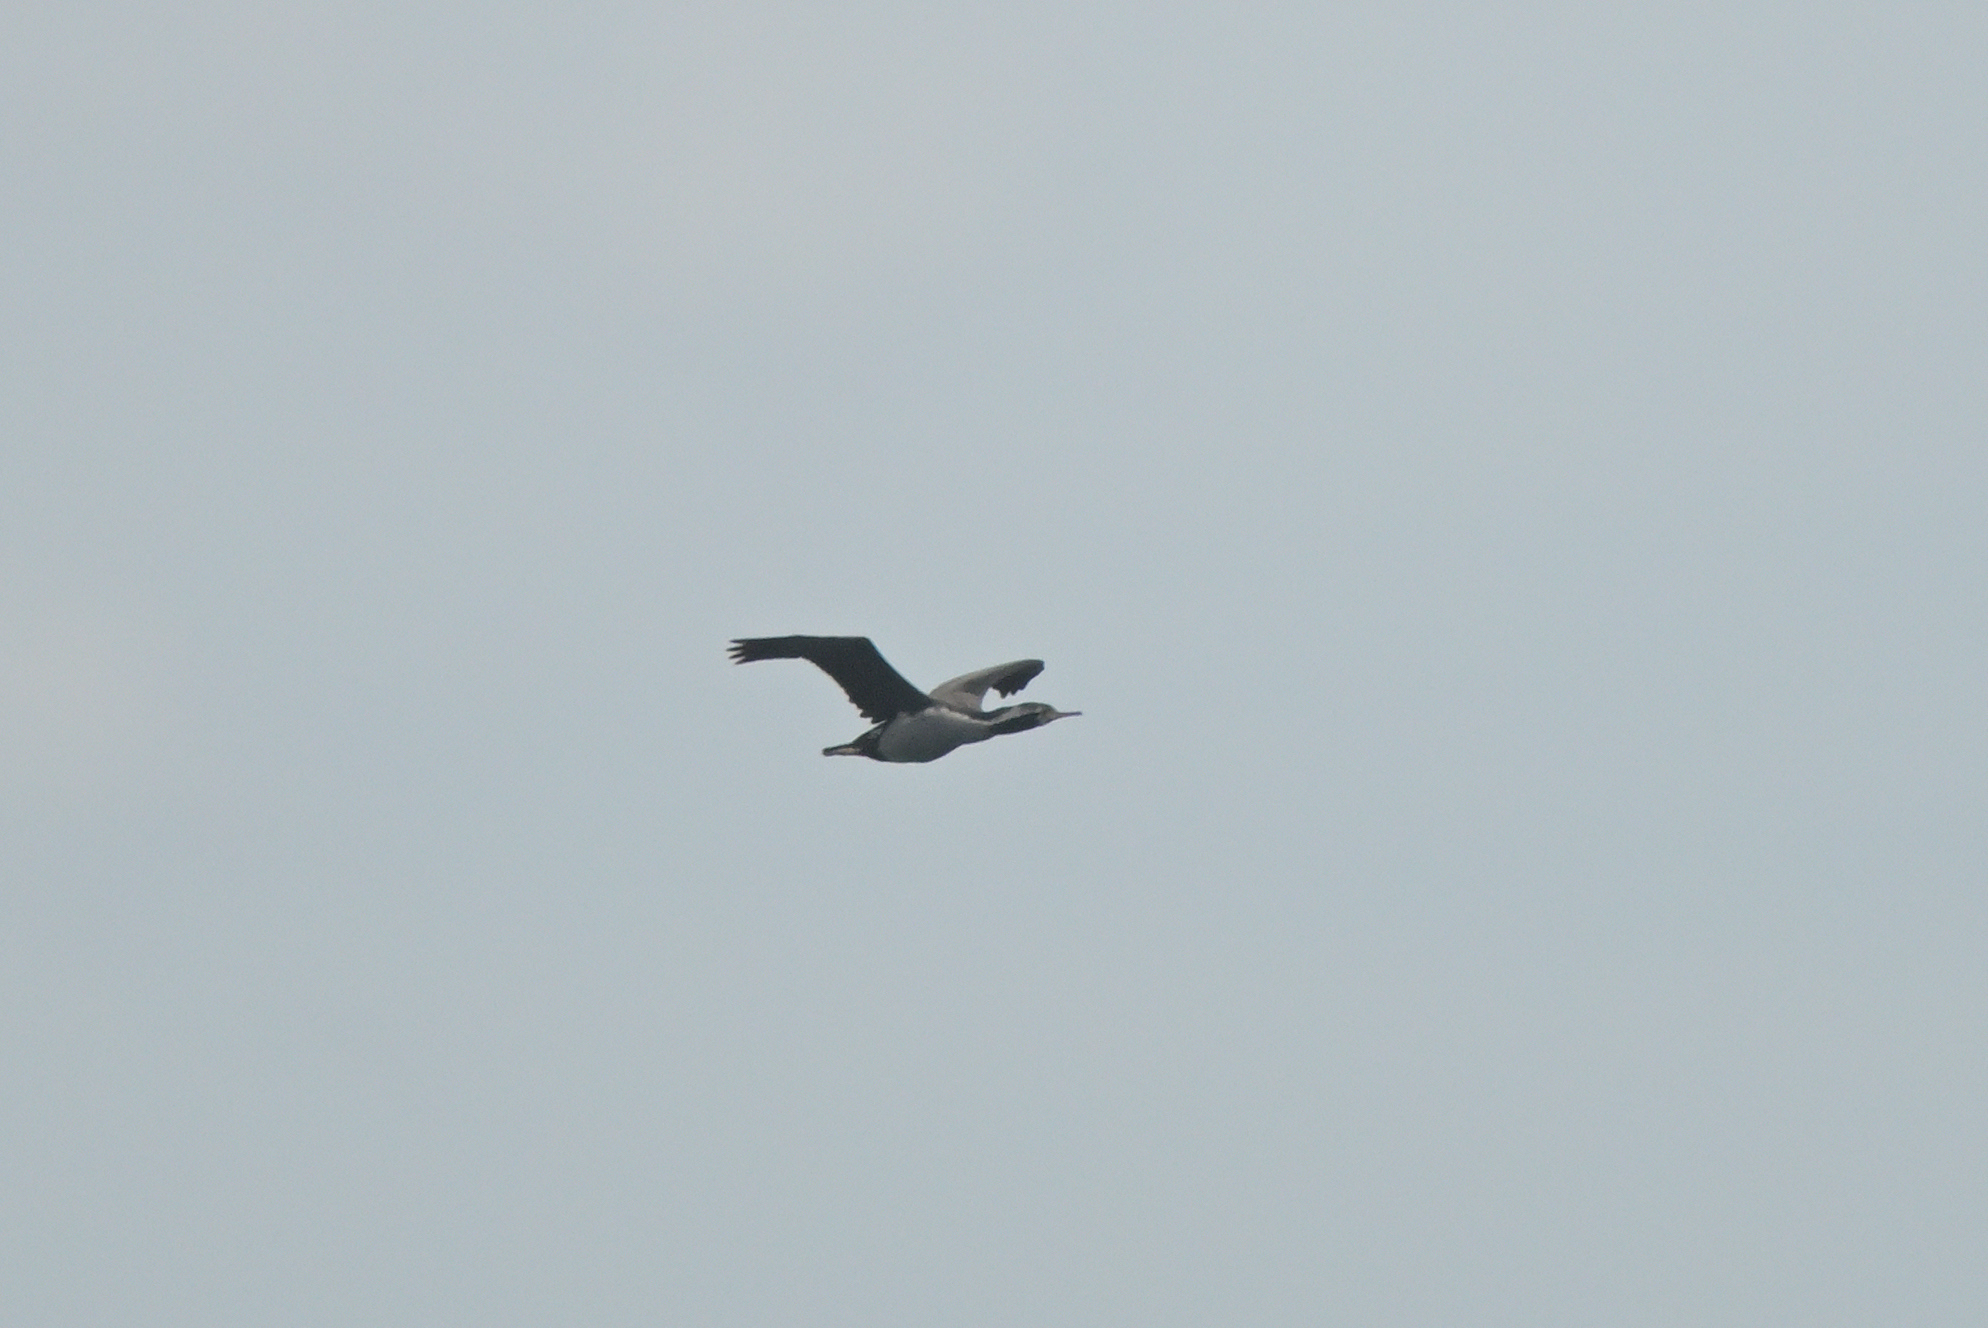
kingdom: Animalia
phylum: Chordata
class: Aves
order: Suliformes
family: Phalacrocoracidae
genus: Phalacrocorax
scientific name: Phalacrocorax punctatus
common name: Spotted shag
